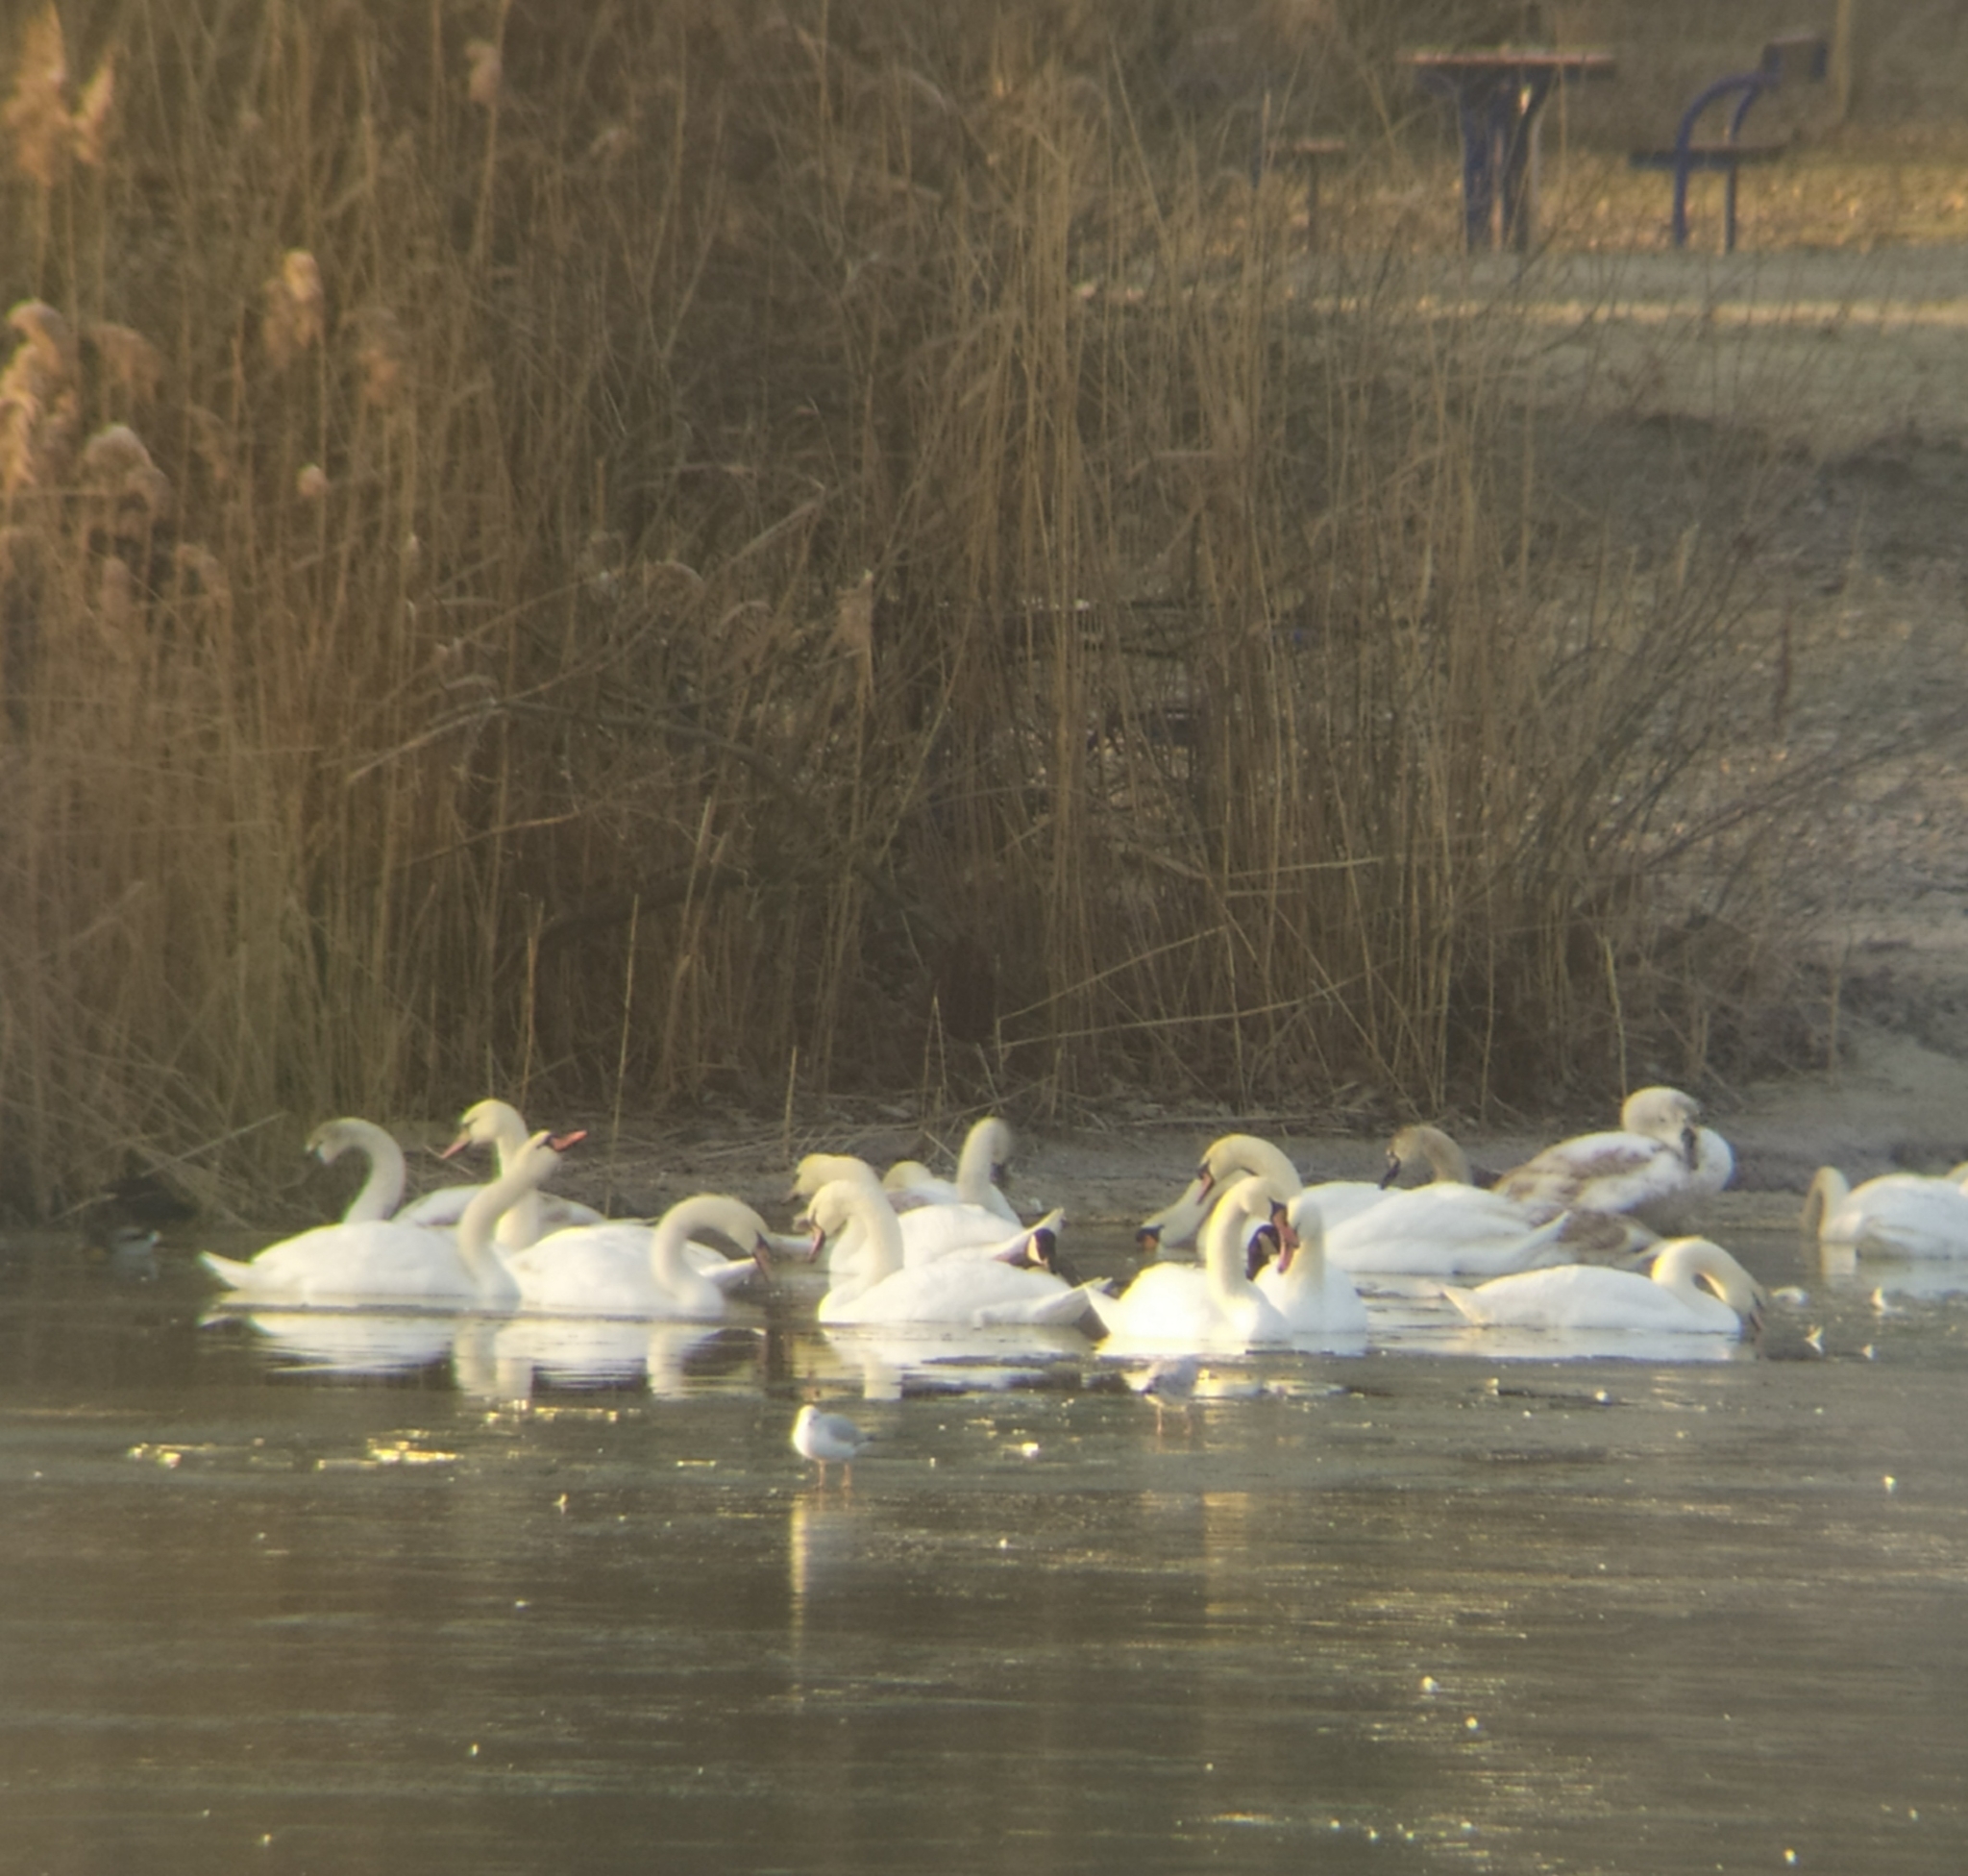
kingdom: Animalia
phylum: Chordata
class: Aves
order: Anseriformes
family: Anatidae
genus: Branta
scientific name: Branta canadensis
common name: Canada goose
